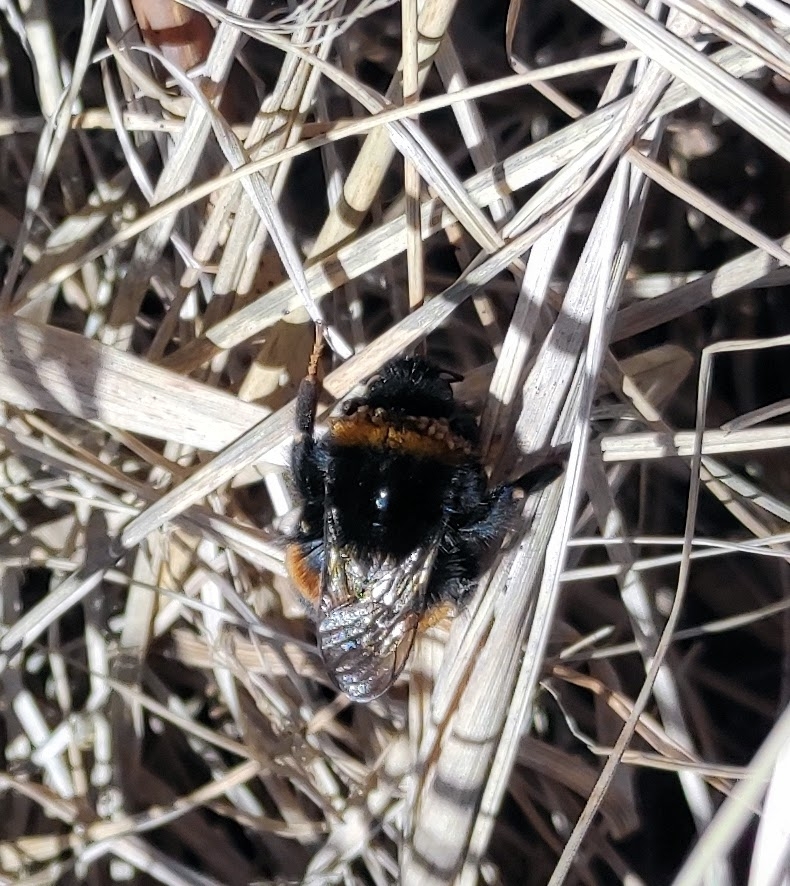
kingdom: Animalia
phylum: Arthropoda
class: Insecta
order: Hymenoptera
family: Apidae
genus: Bombus
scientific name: Bombus terrestris
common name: Buff-tailed bumblebee
